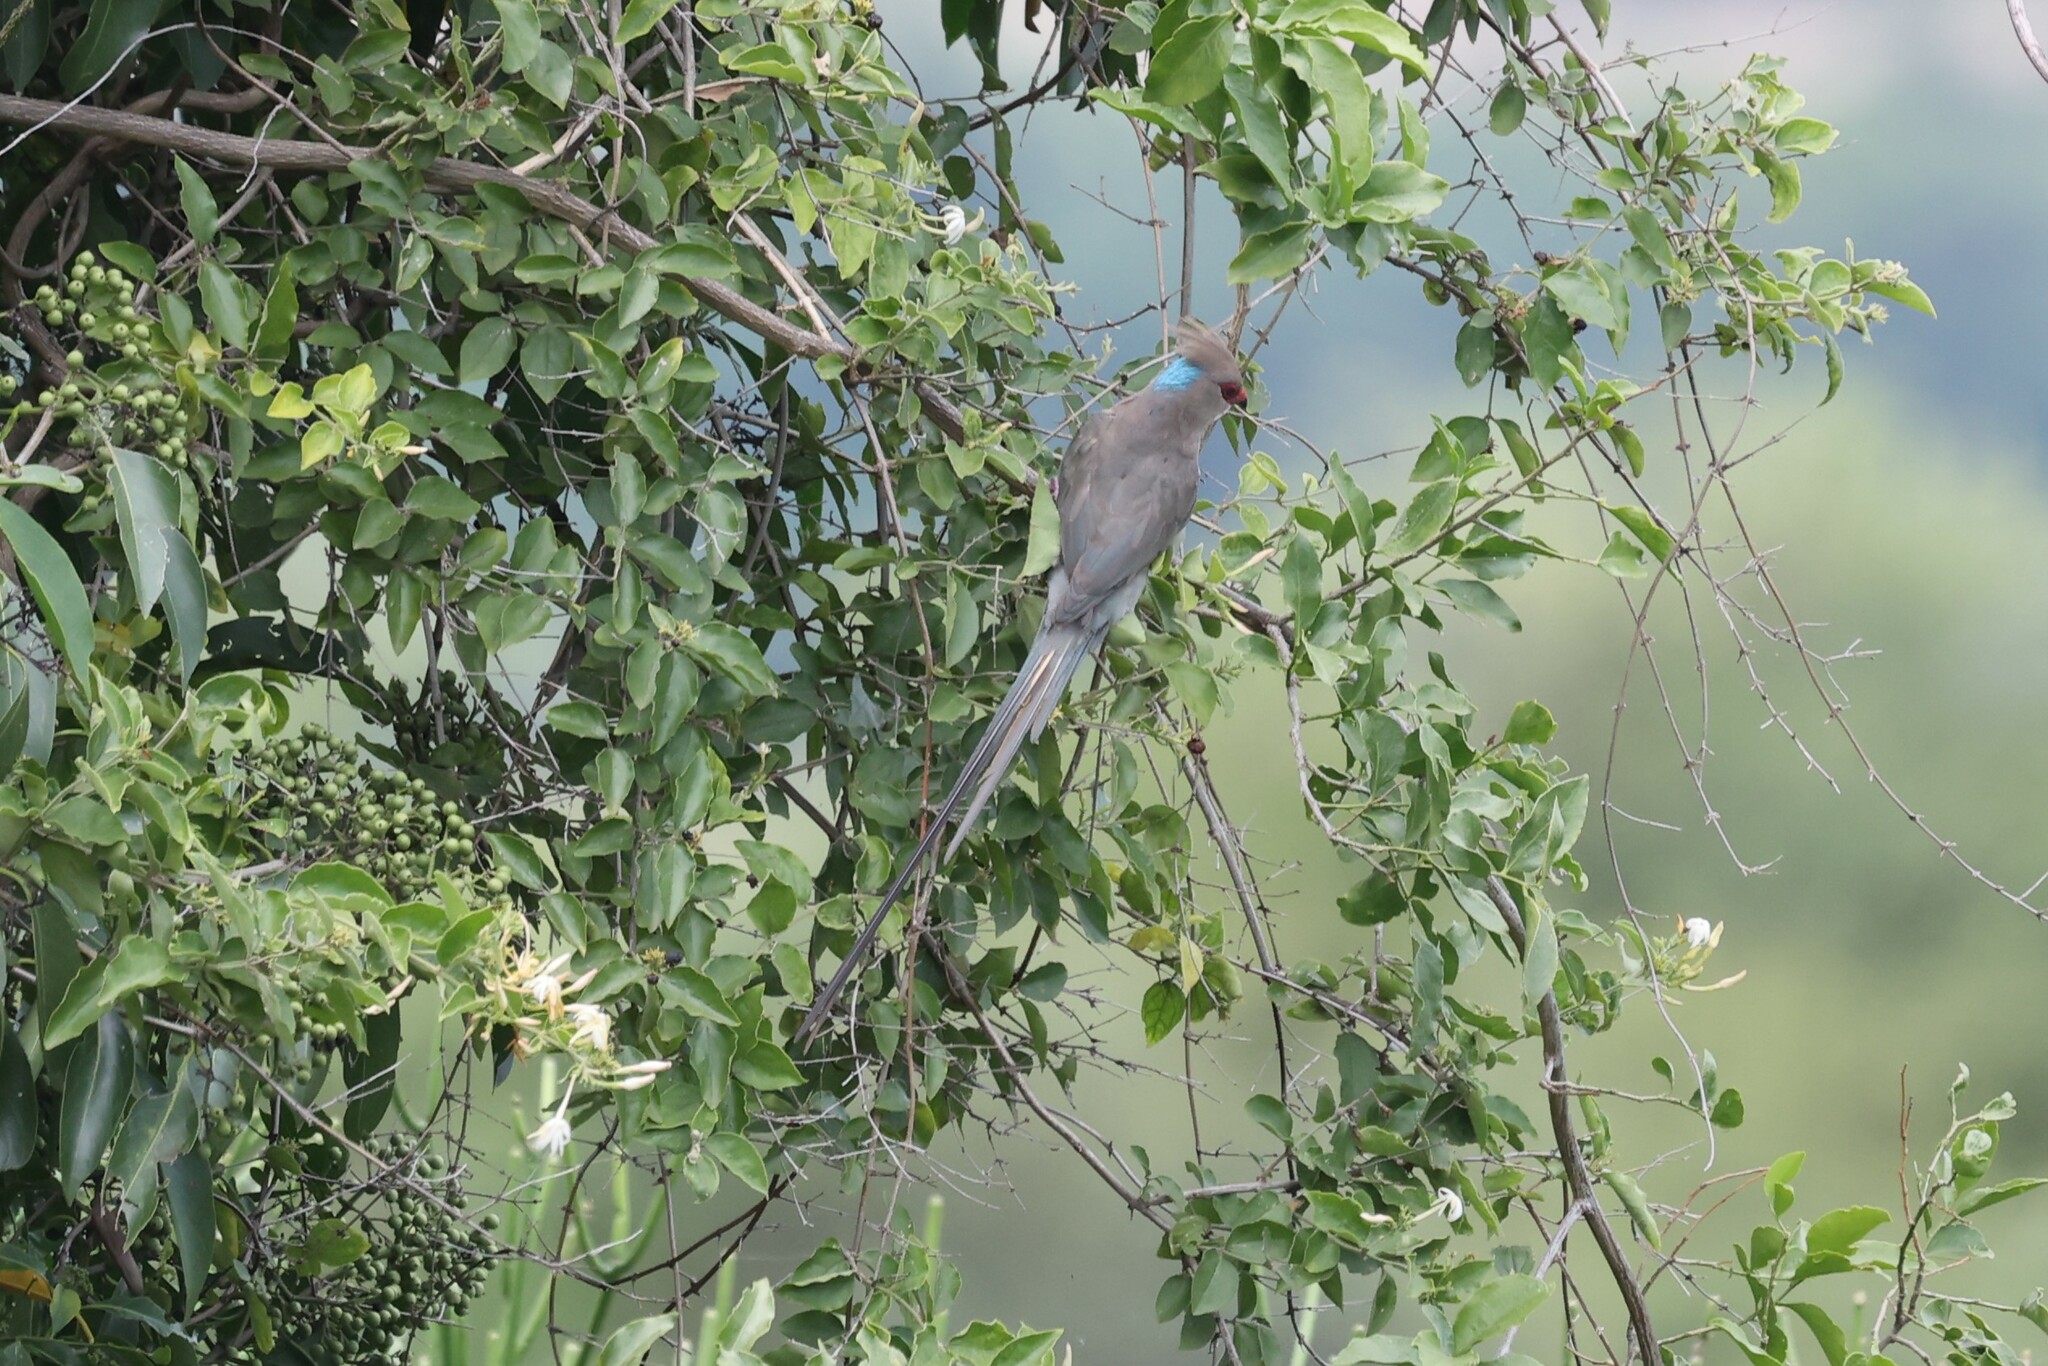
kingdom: Animalia
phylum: Chordata
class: Aves
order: Coliiformes
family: Coliidae
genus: Urocolius
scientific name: Urocolius macrourus
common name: Blue-naped mousebird
